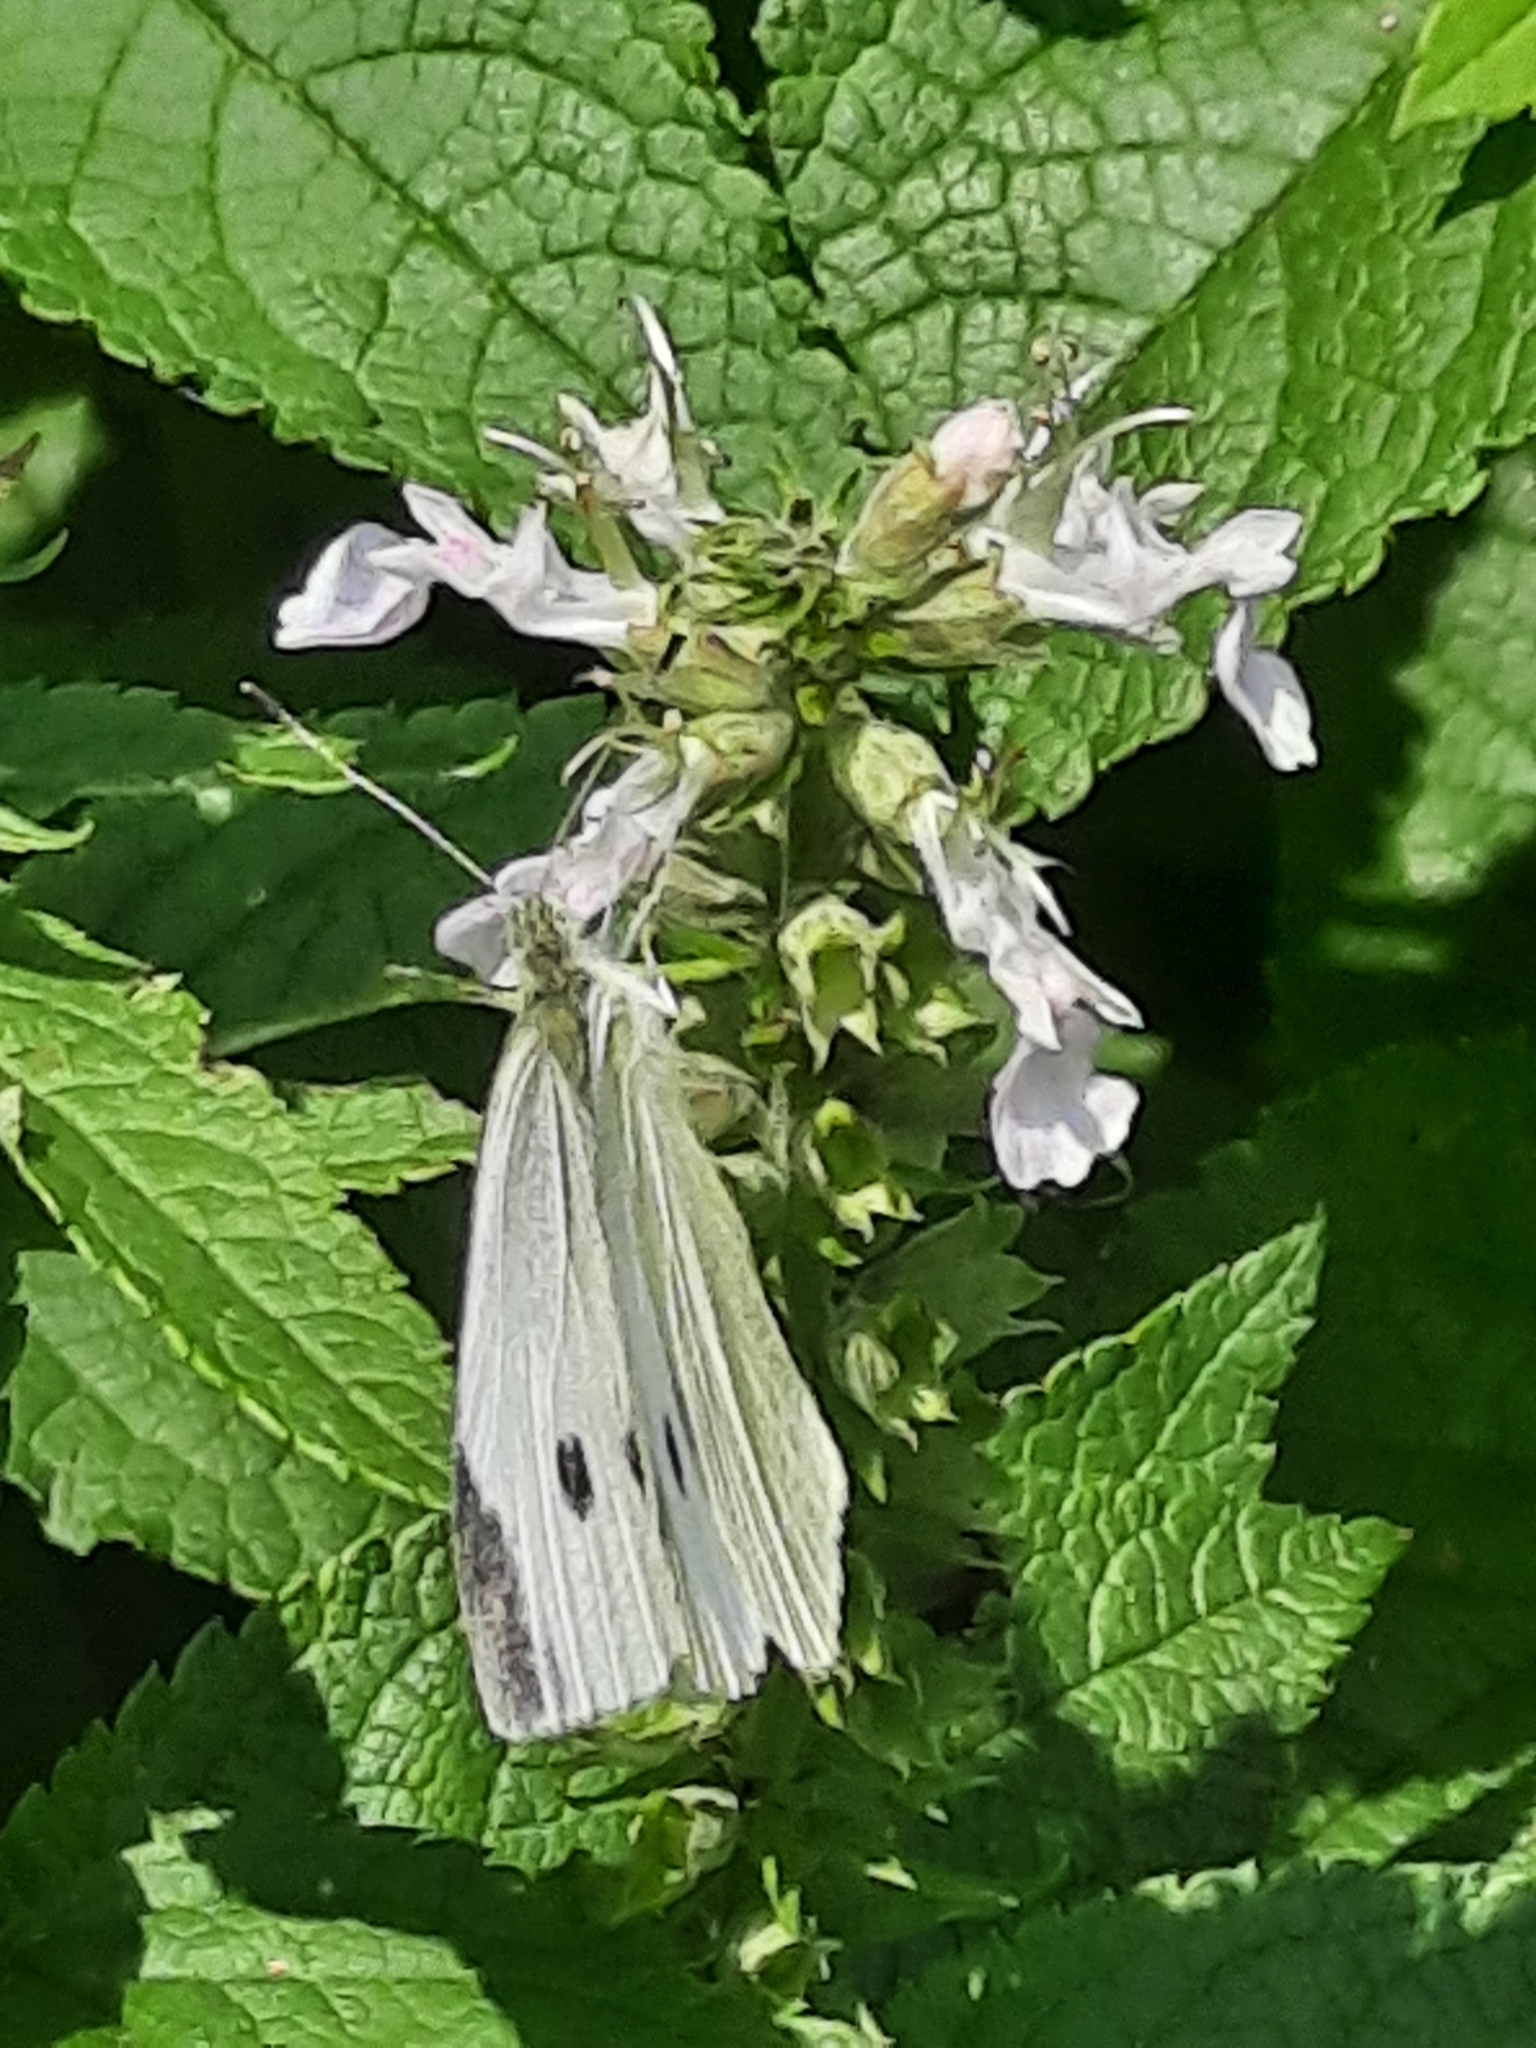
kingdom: Animalia
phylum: Arthropoda
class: Insecta
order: Lepidoptera
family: Pieridae
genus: Pieris
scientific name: Pieris rapae
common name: Small white
